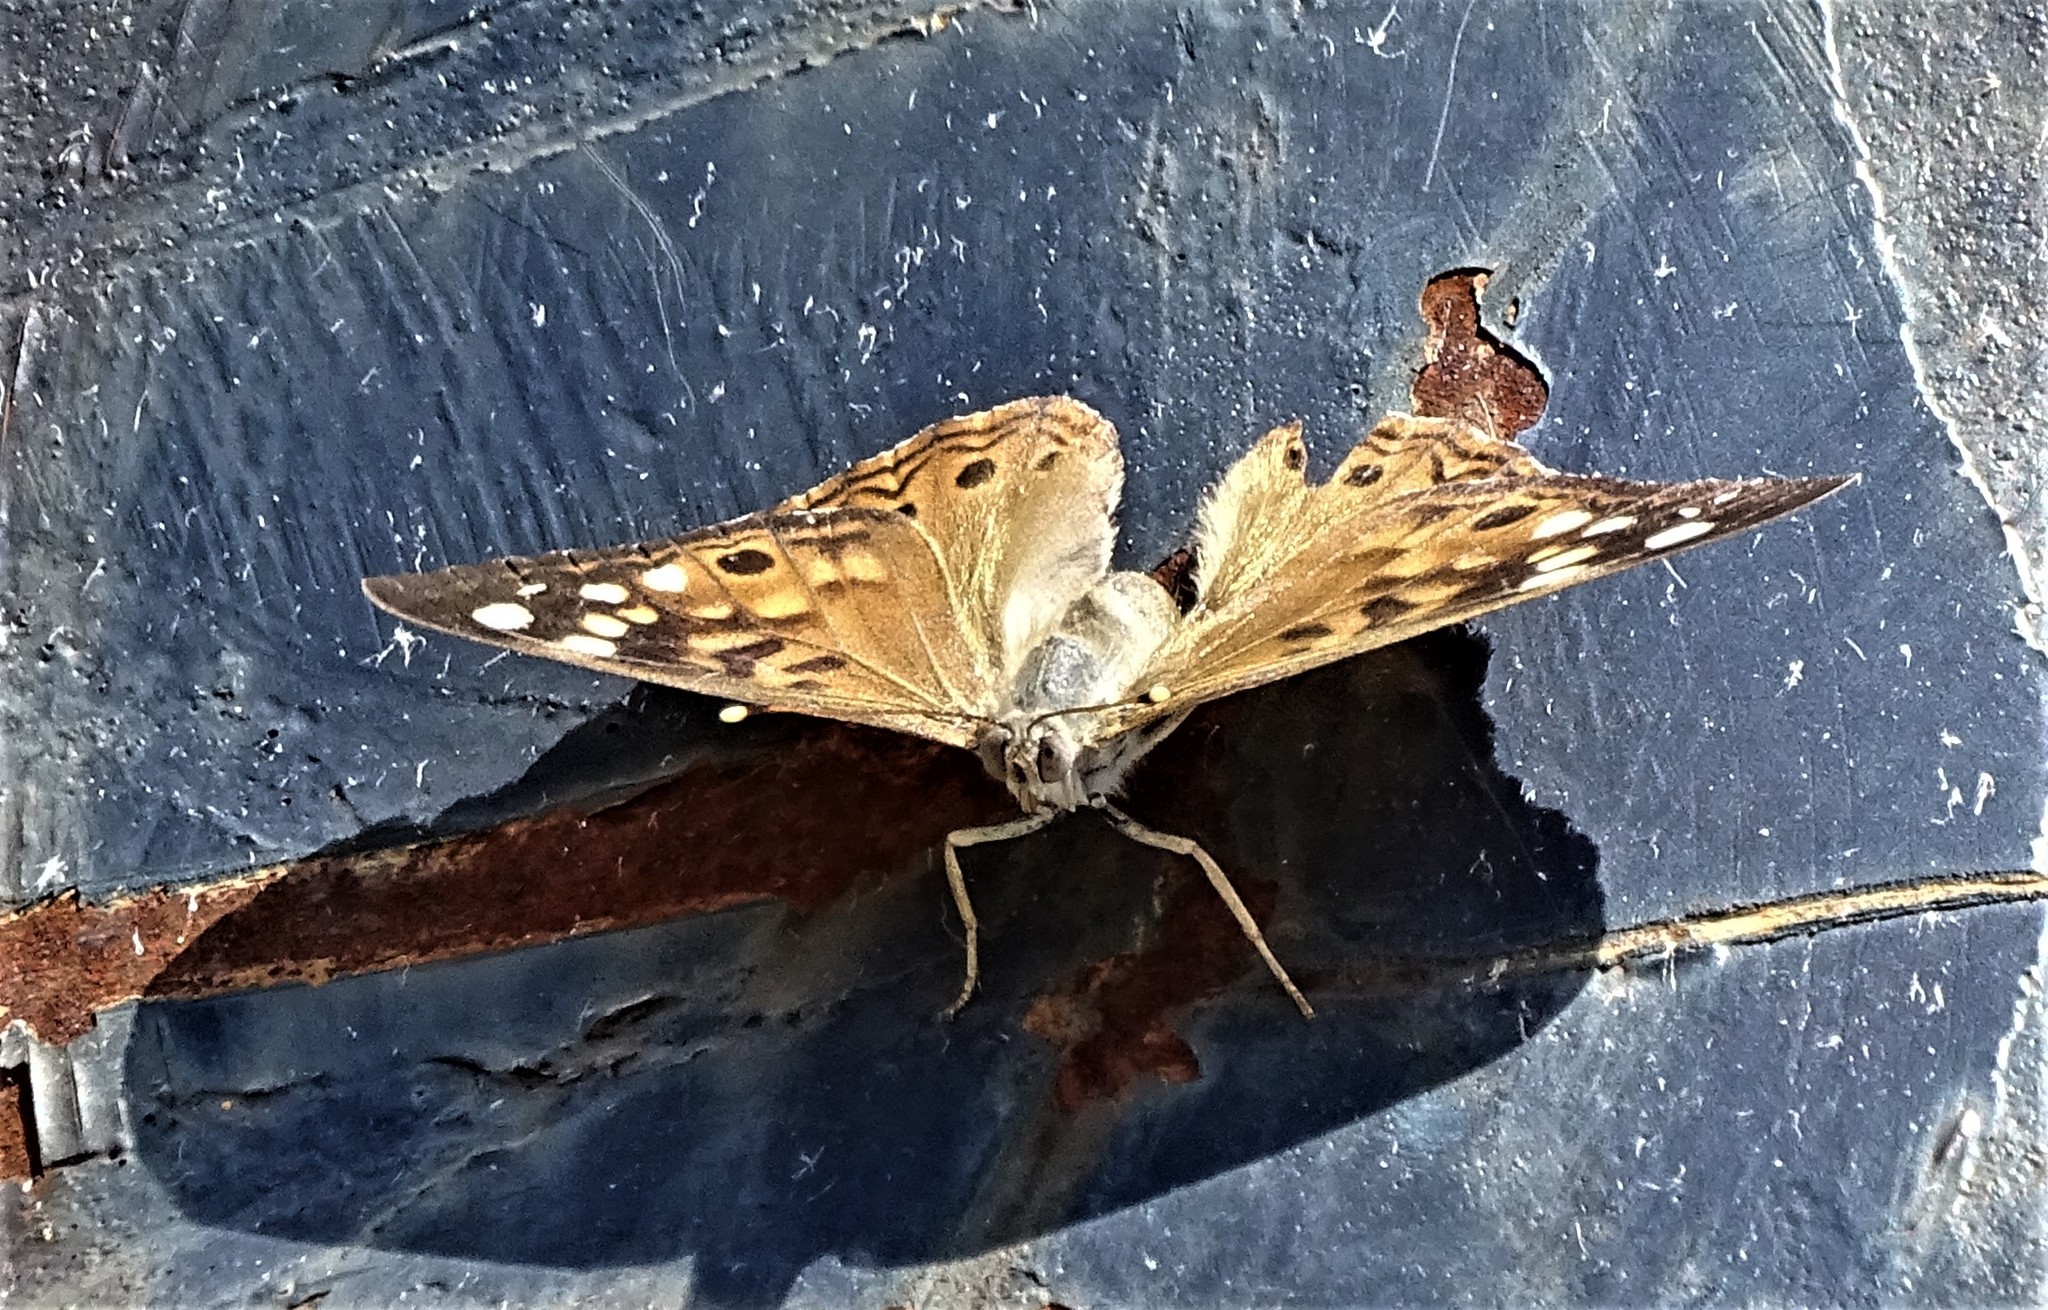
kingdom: Animalia
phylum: Arthropoda
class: Insecta
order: Lepidoptera
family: Nymphalidae
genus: Asterocampa
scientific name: Asterocampa celtis
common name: Hackberry emperor
